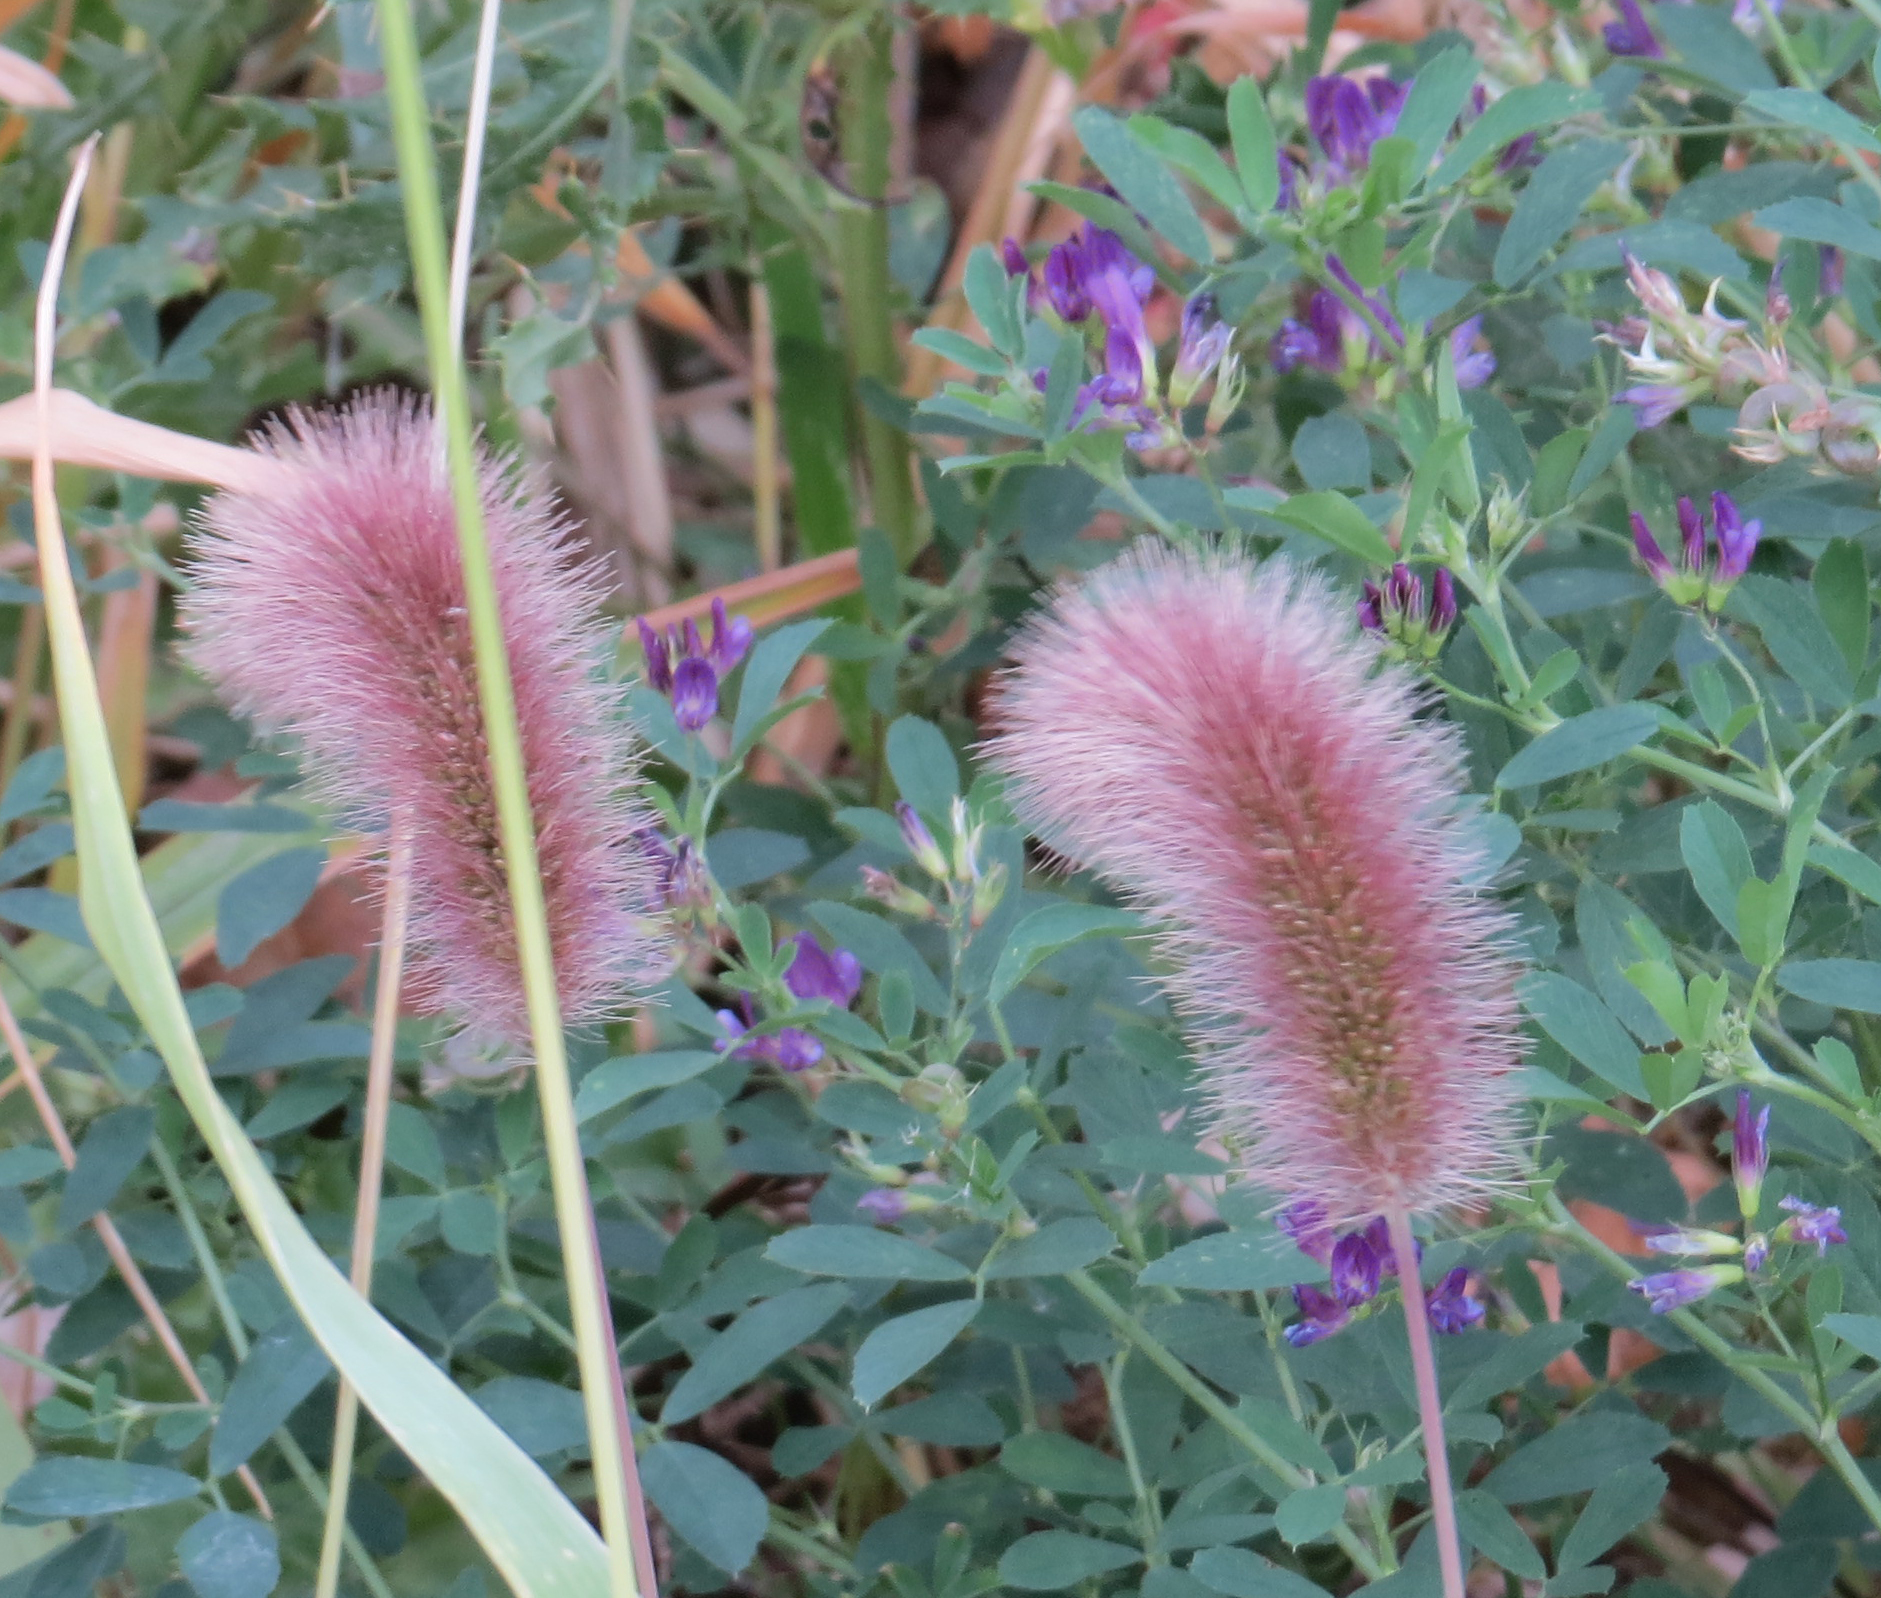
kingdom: Plantae
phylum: Tracheophyta
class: Liliopsida
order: Poales
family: Poaceae
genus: Setaria
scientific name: Setaria viridis
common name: Green bristlegrass
